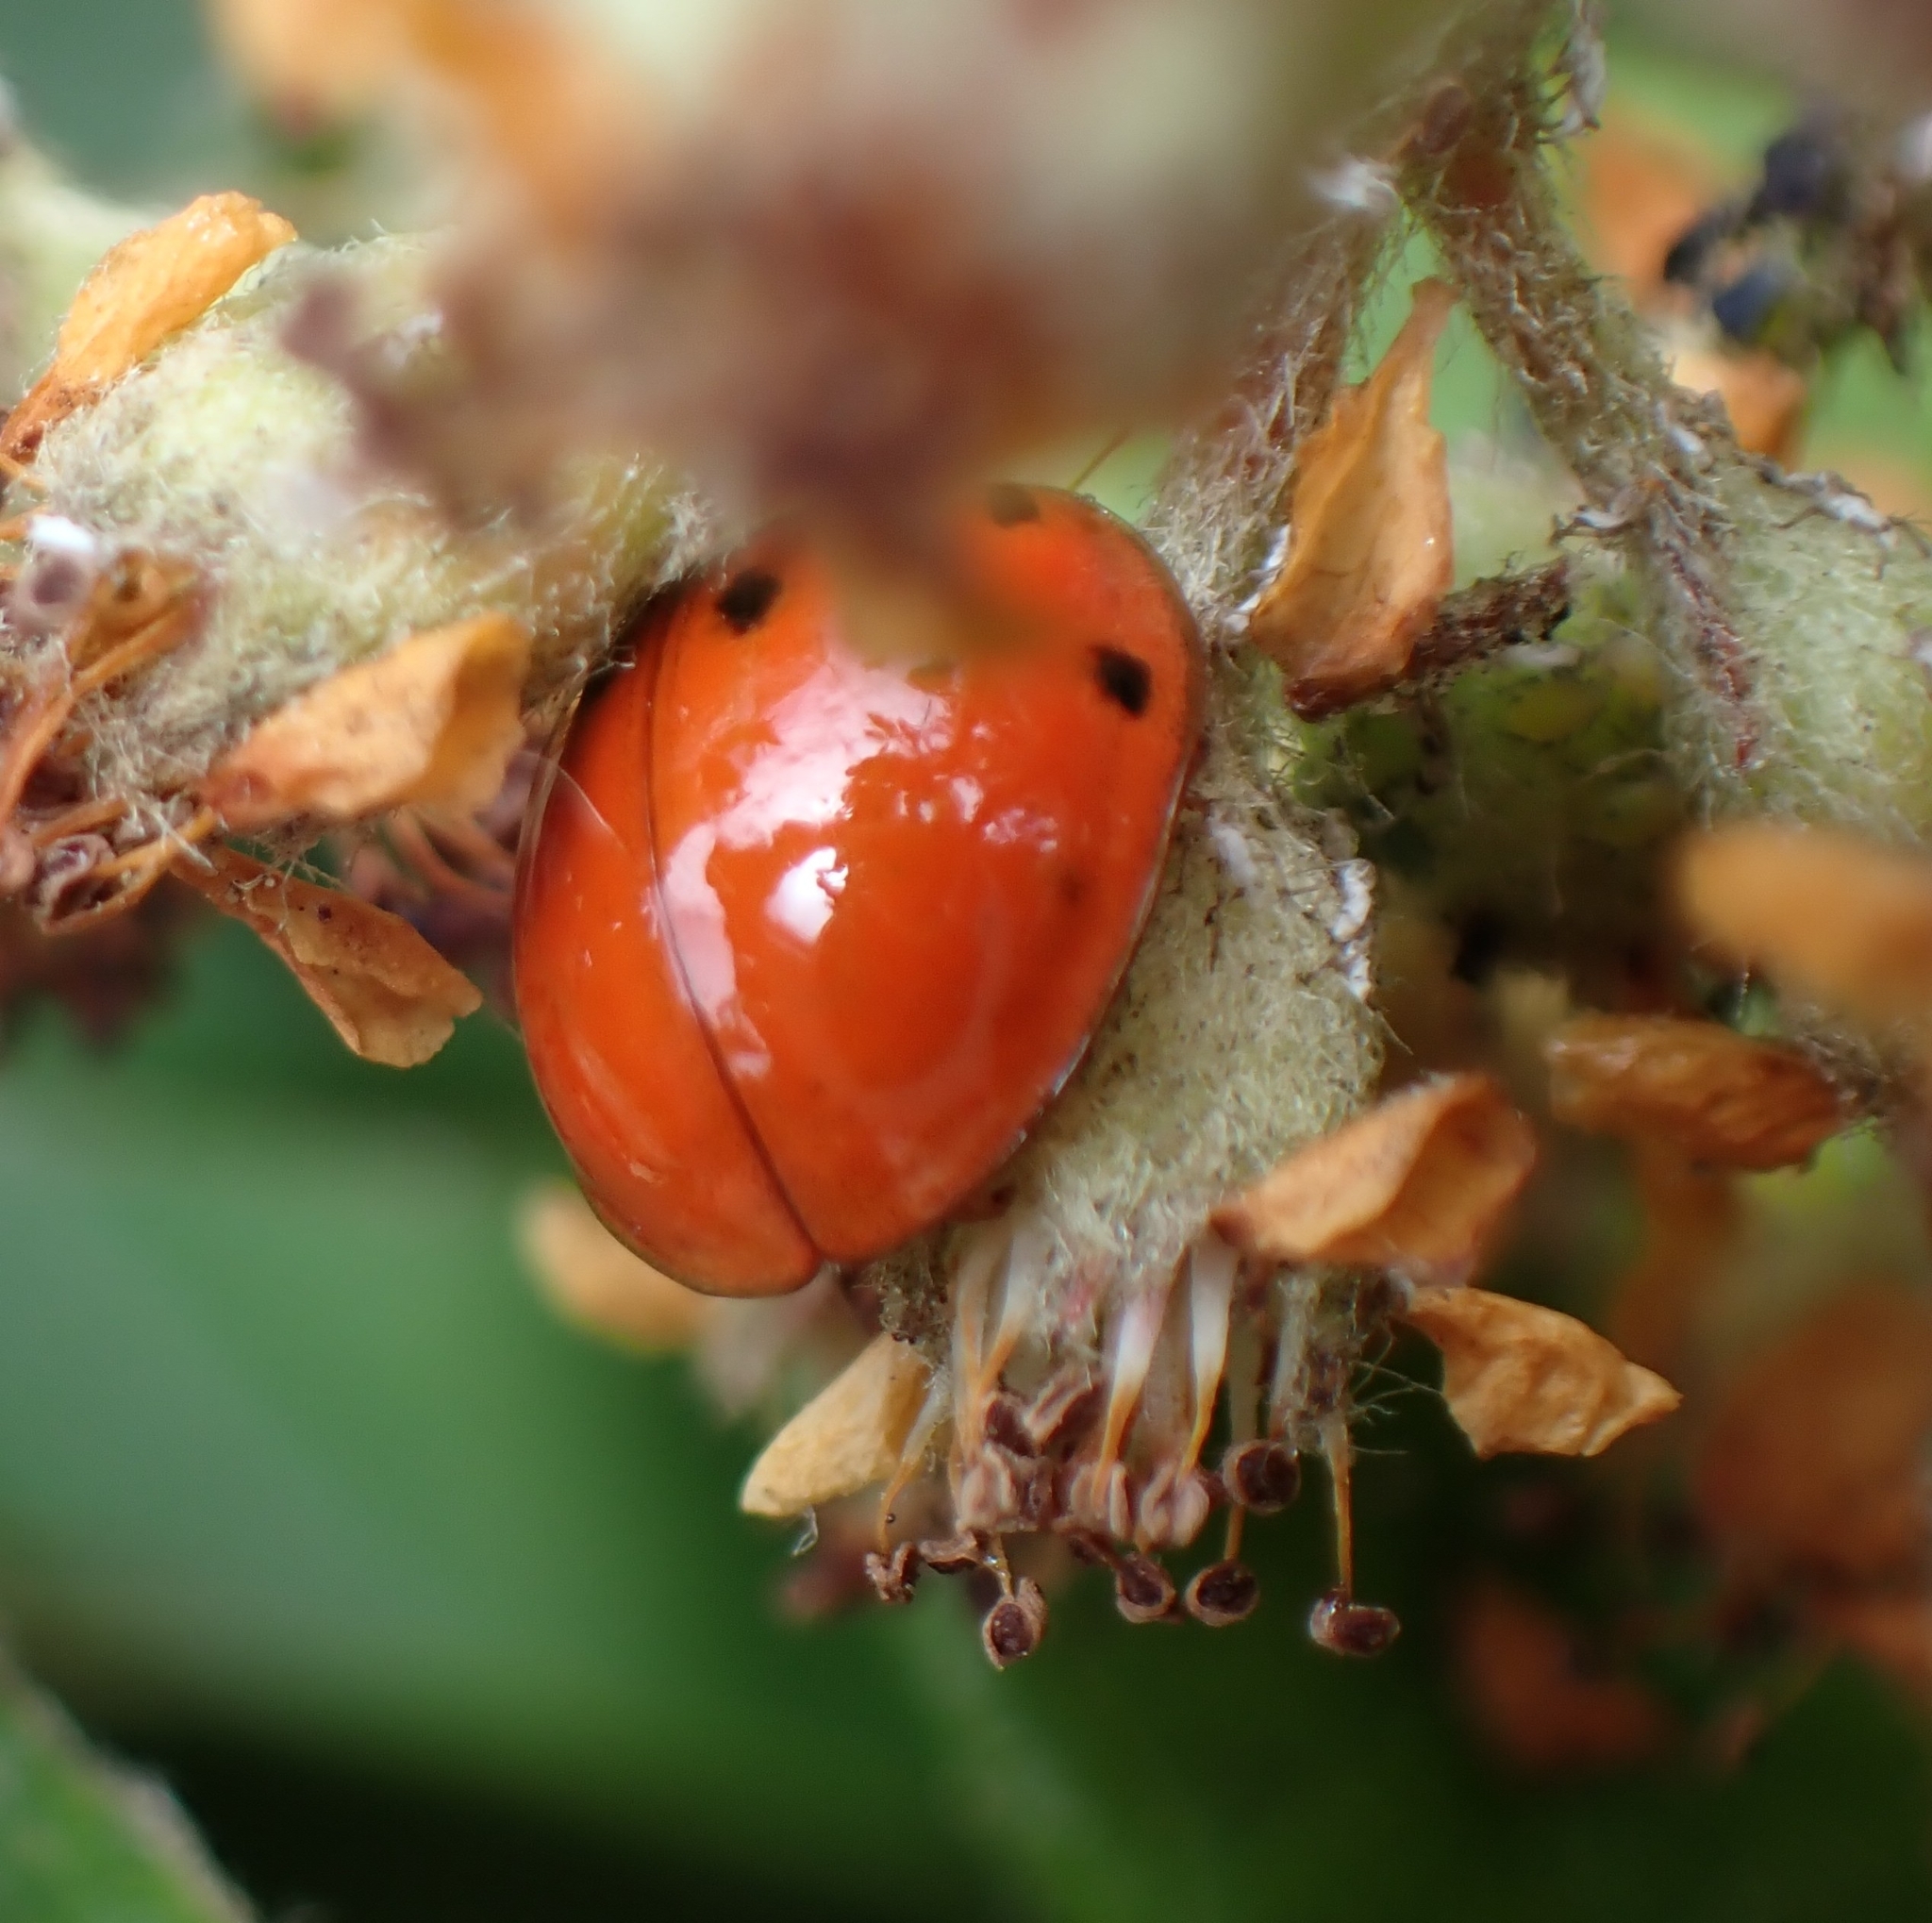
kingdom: Animalia
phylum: Arthropoda
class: Insecta
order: Coleoptera
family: Coccinellidae
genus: Harmonia
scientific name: Harmonia axyridis
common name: Harlequin ladybird
